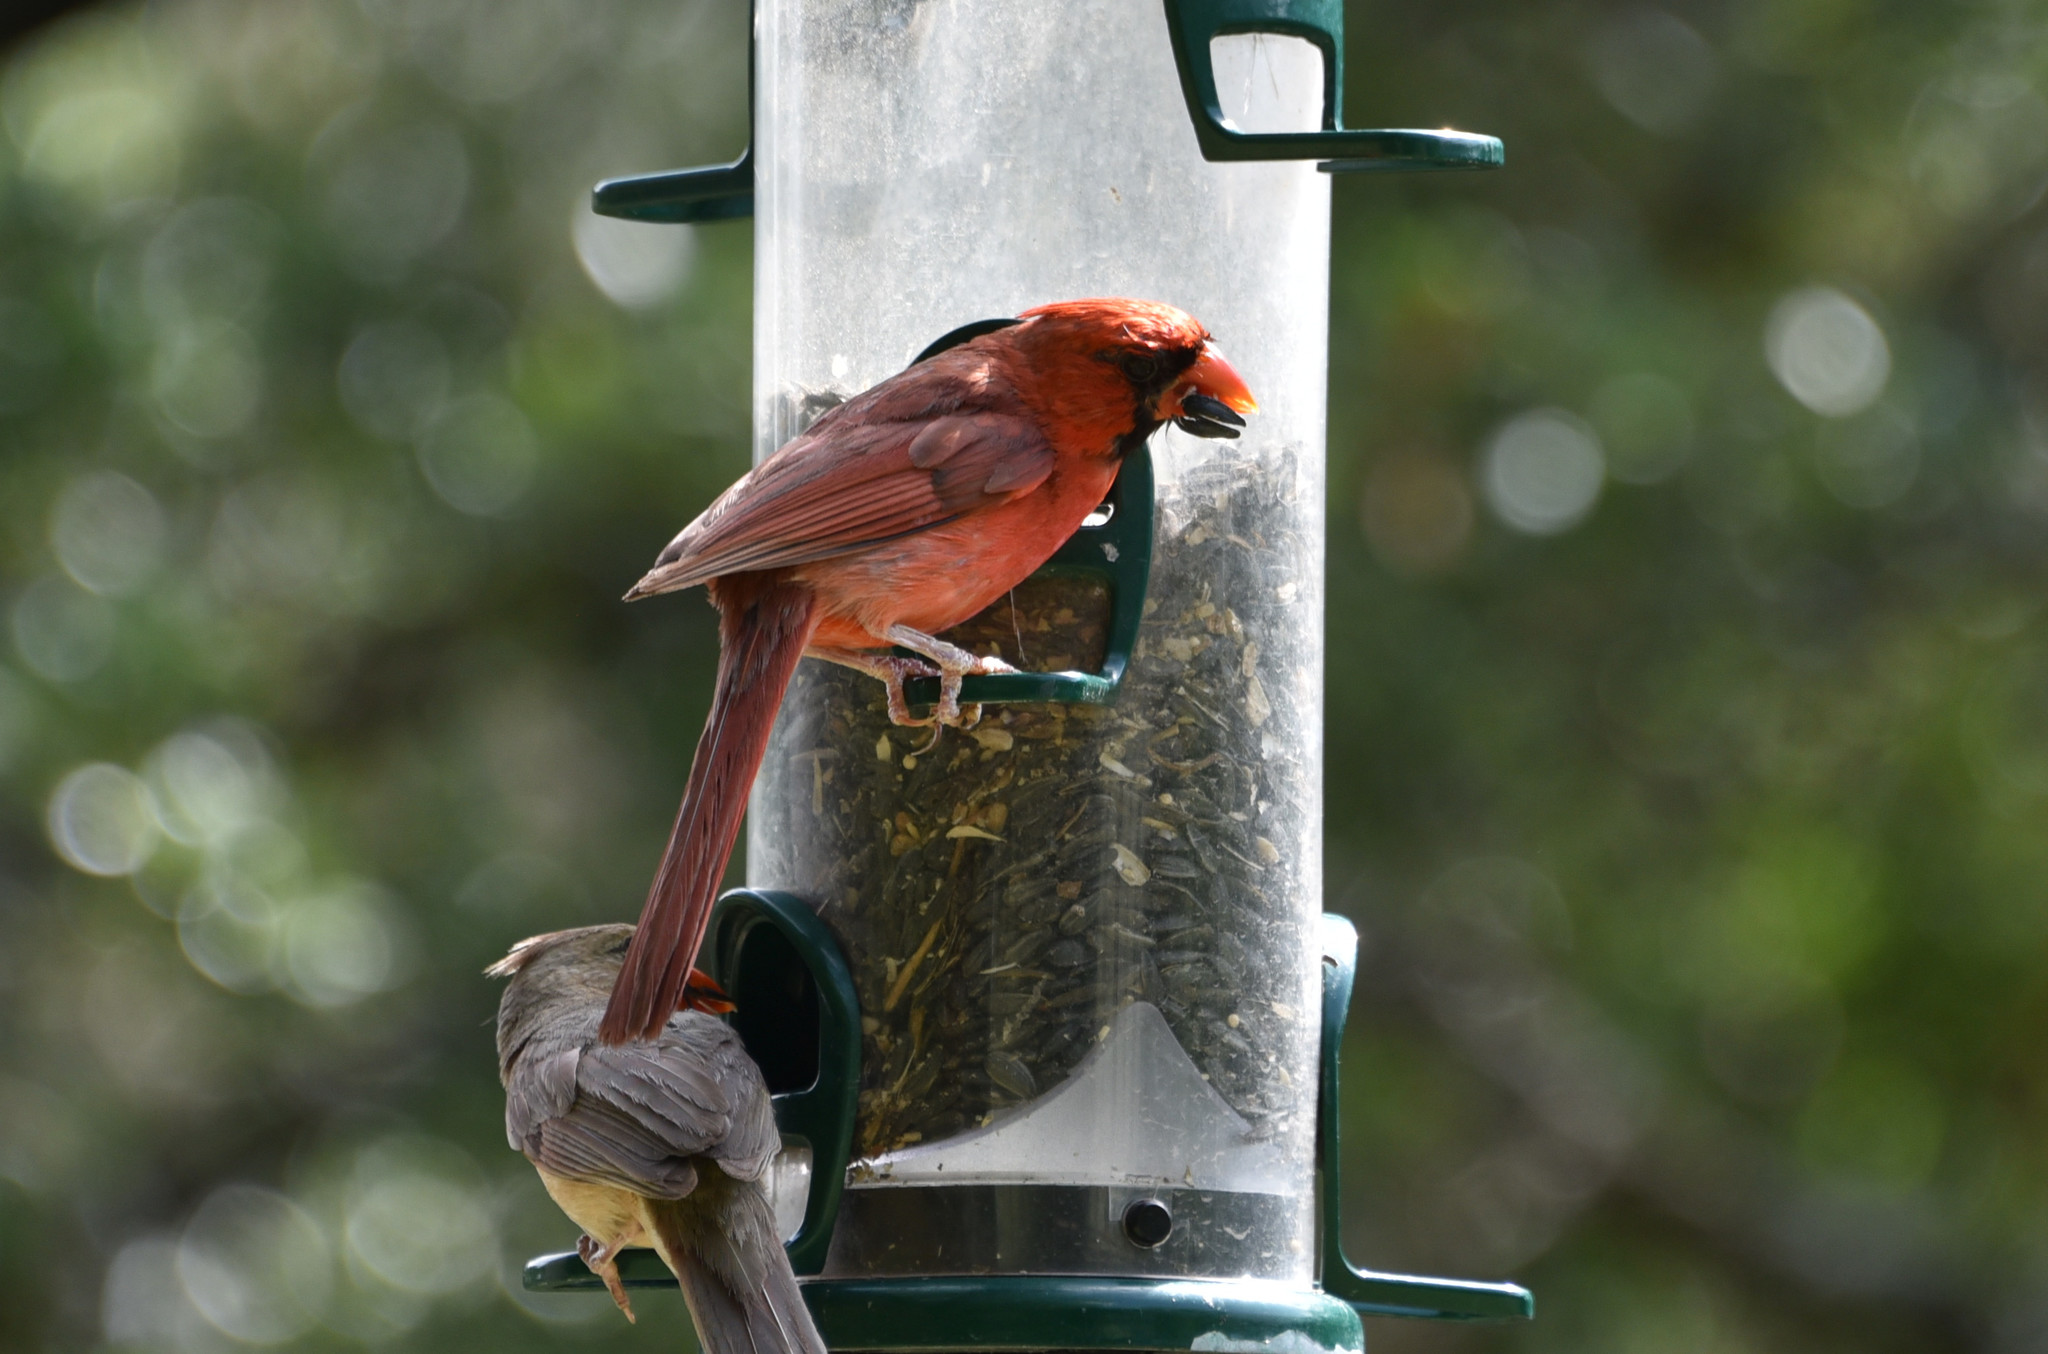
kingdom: Animalia
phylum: Chordata
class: Aves
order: Passeriformes
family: Cardinalidae
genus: Cardinalis
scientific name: Cardinalis cardinalis
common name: Northern cardinal
